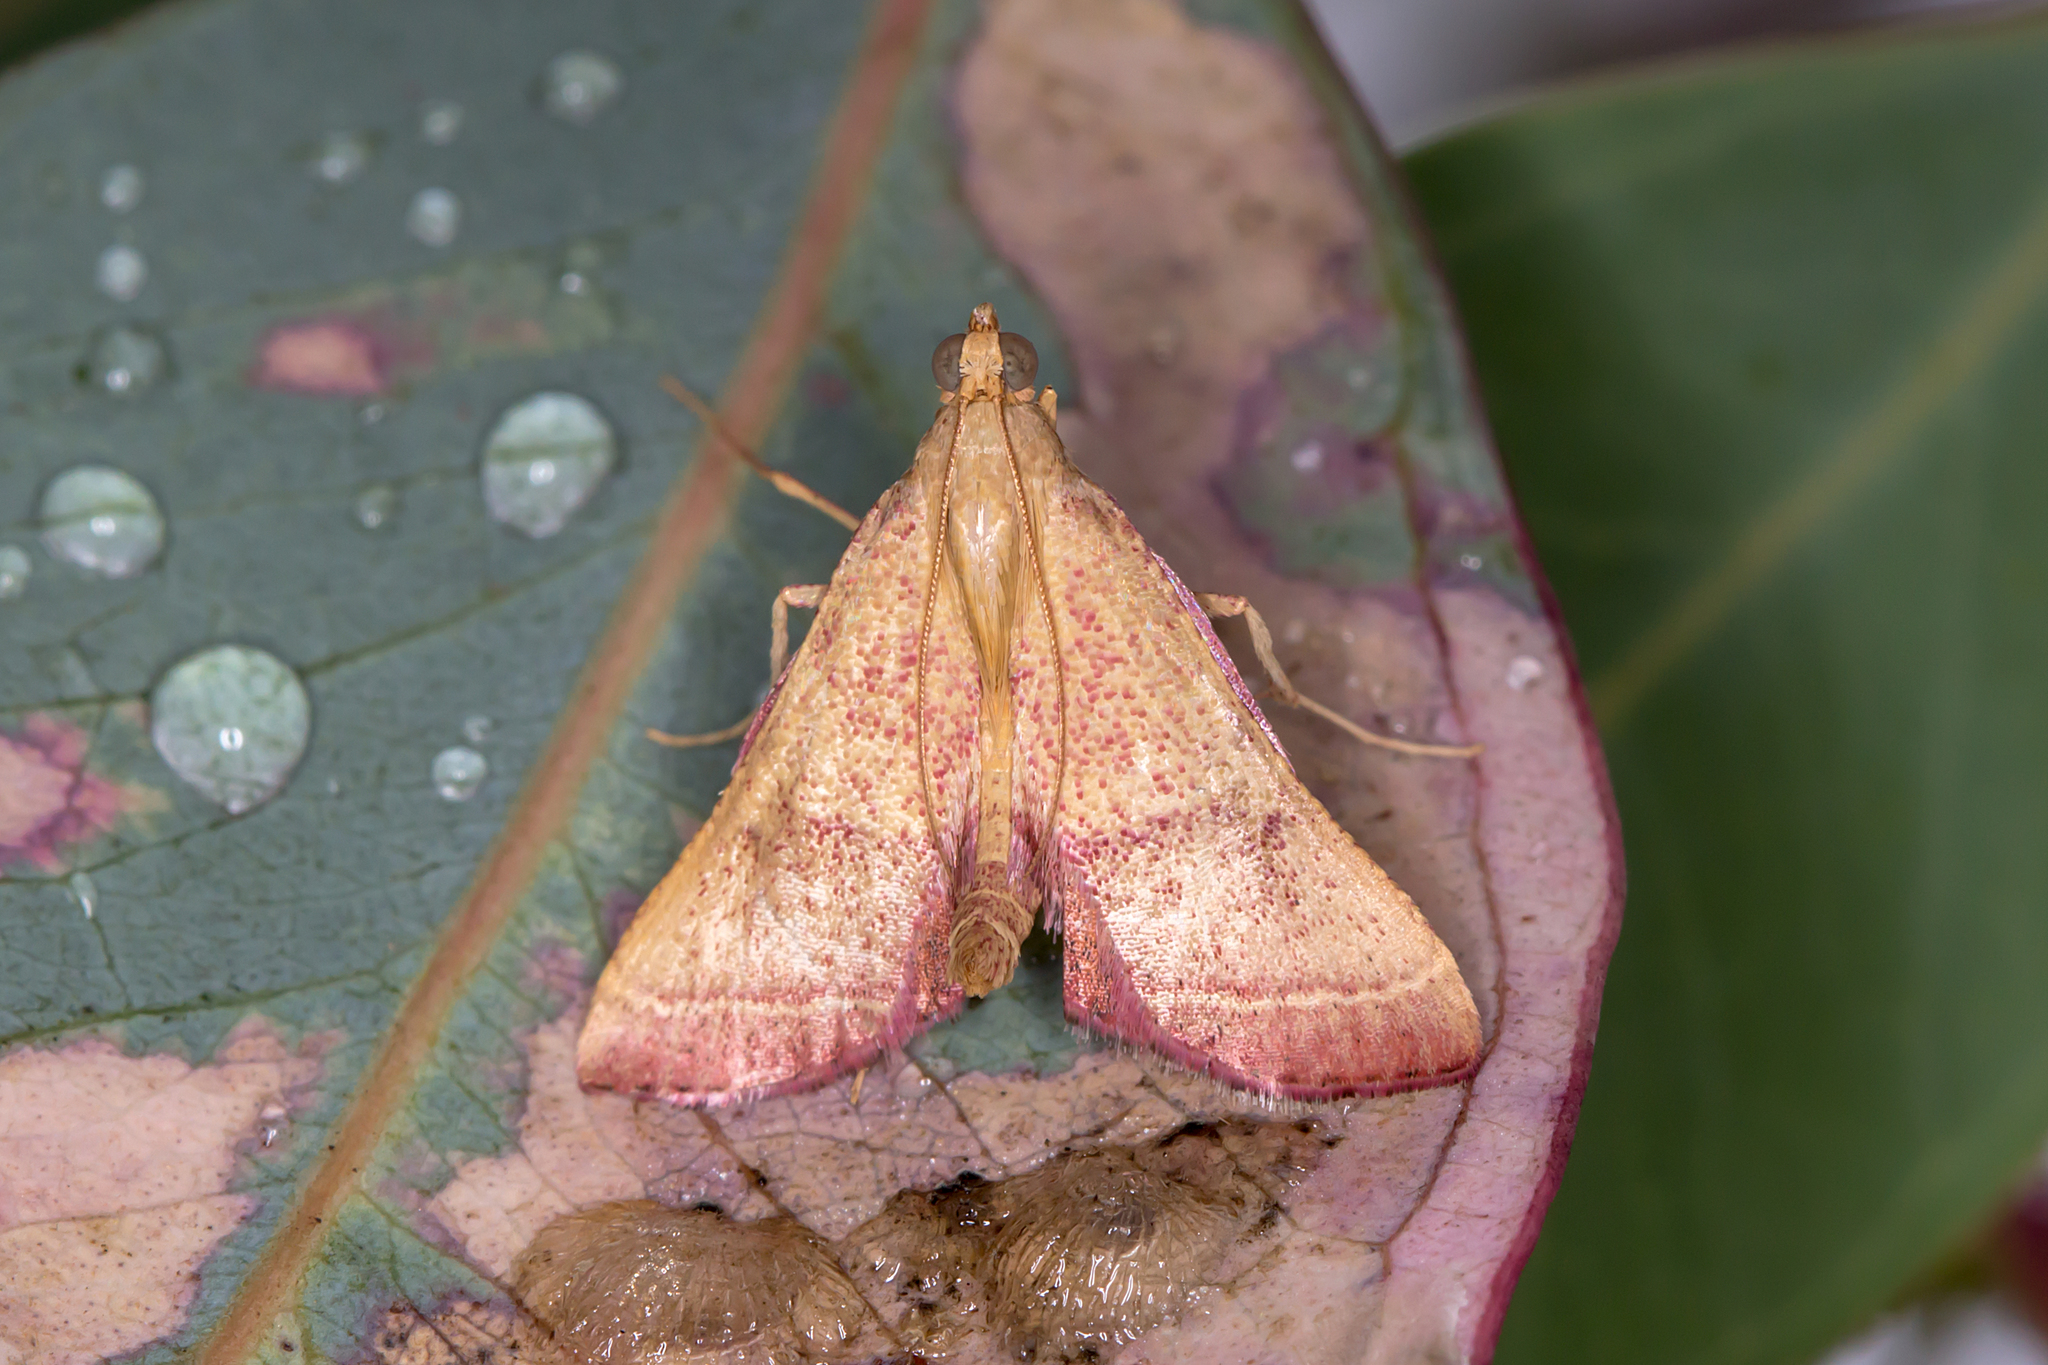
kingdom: Animalia
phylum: Arthropoda
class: Insecta
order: Lepidoptera
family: Pyralidae
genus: Endotricha
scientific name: Endotricha pyrosalis
